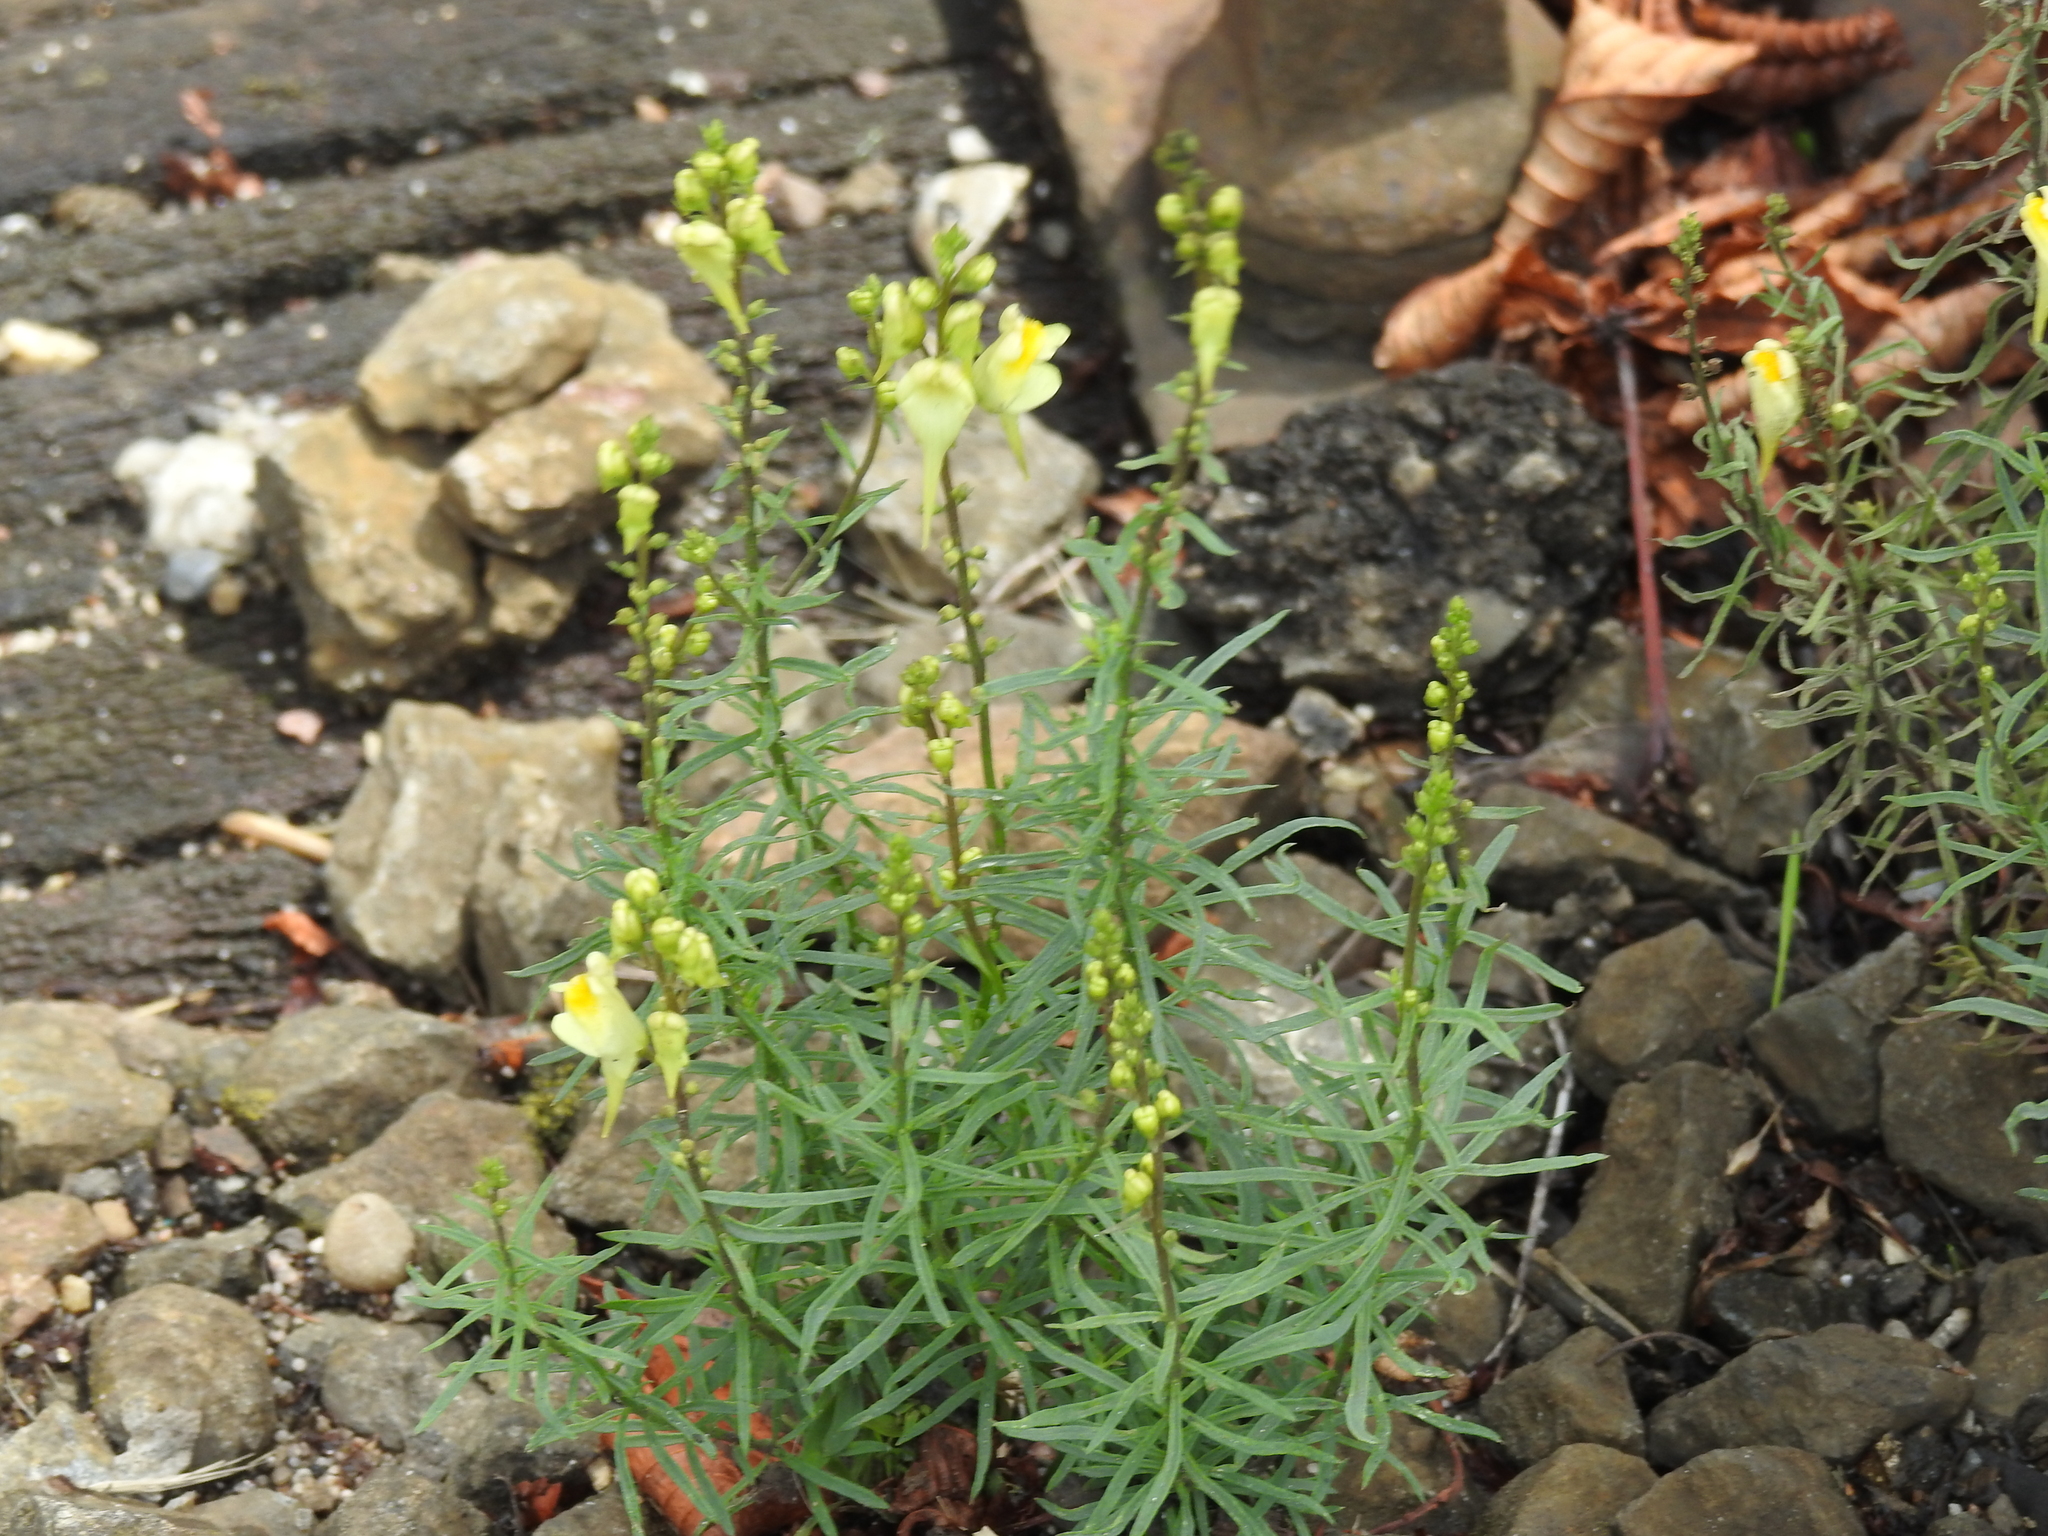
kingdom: Plantae
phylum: Tracheophyta
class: Magnoliopsida
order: Lamiales
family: Plantaginaceae
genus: Linaria
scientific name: Linaria vulgaris
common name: Butter and eggs
